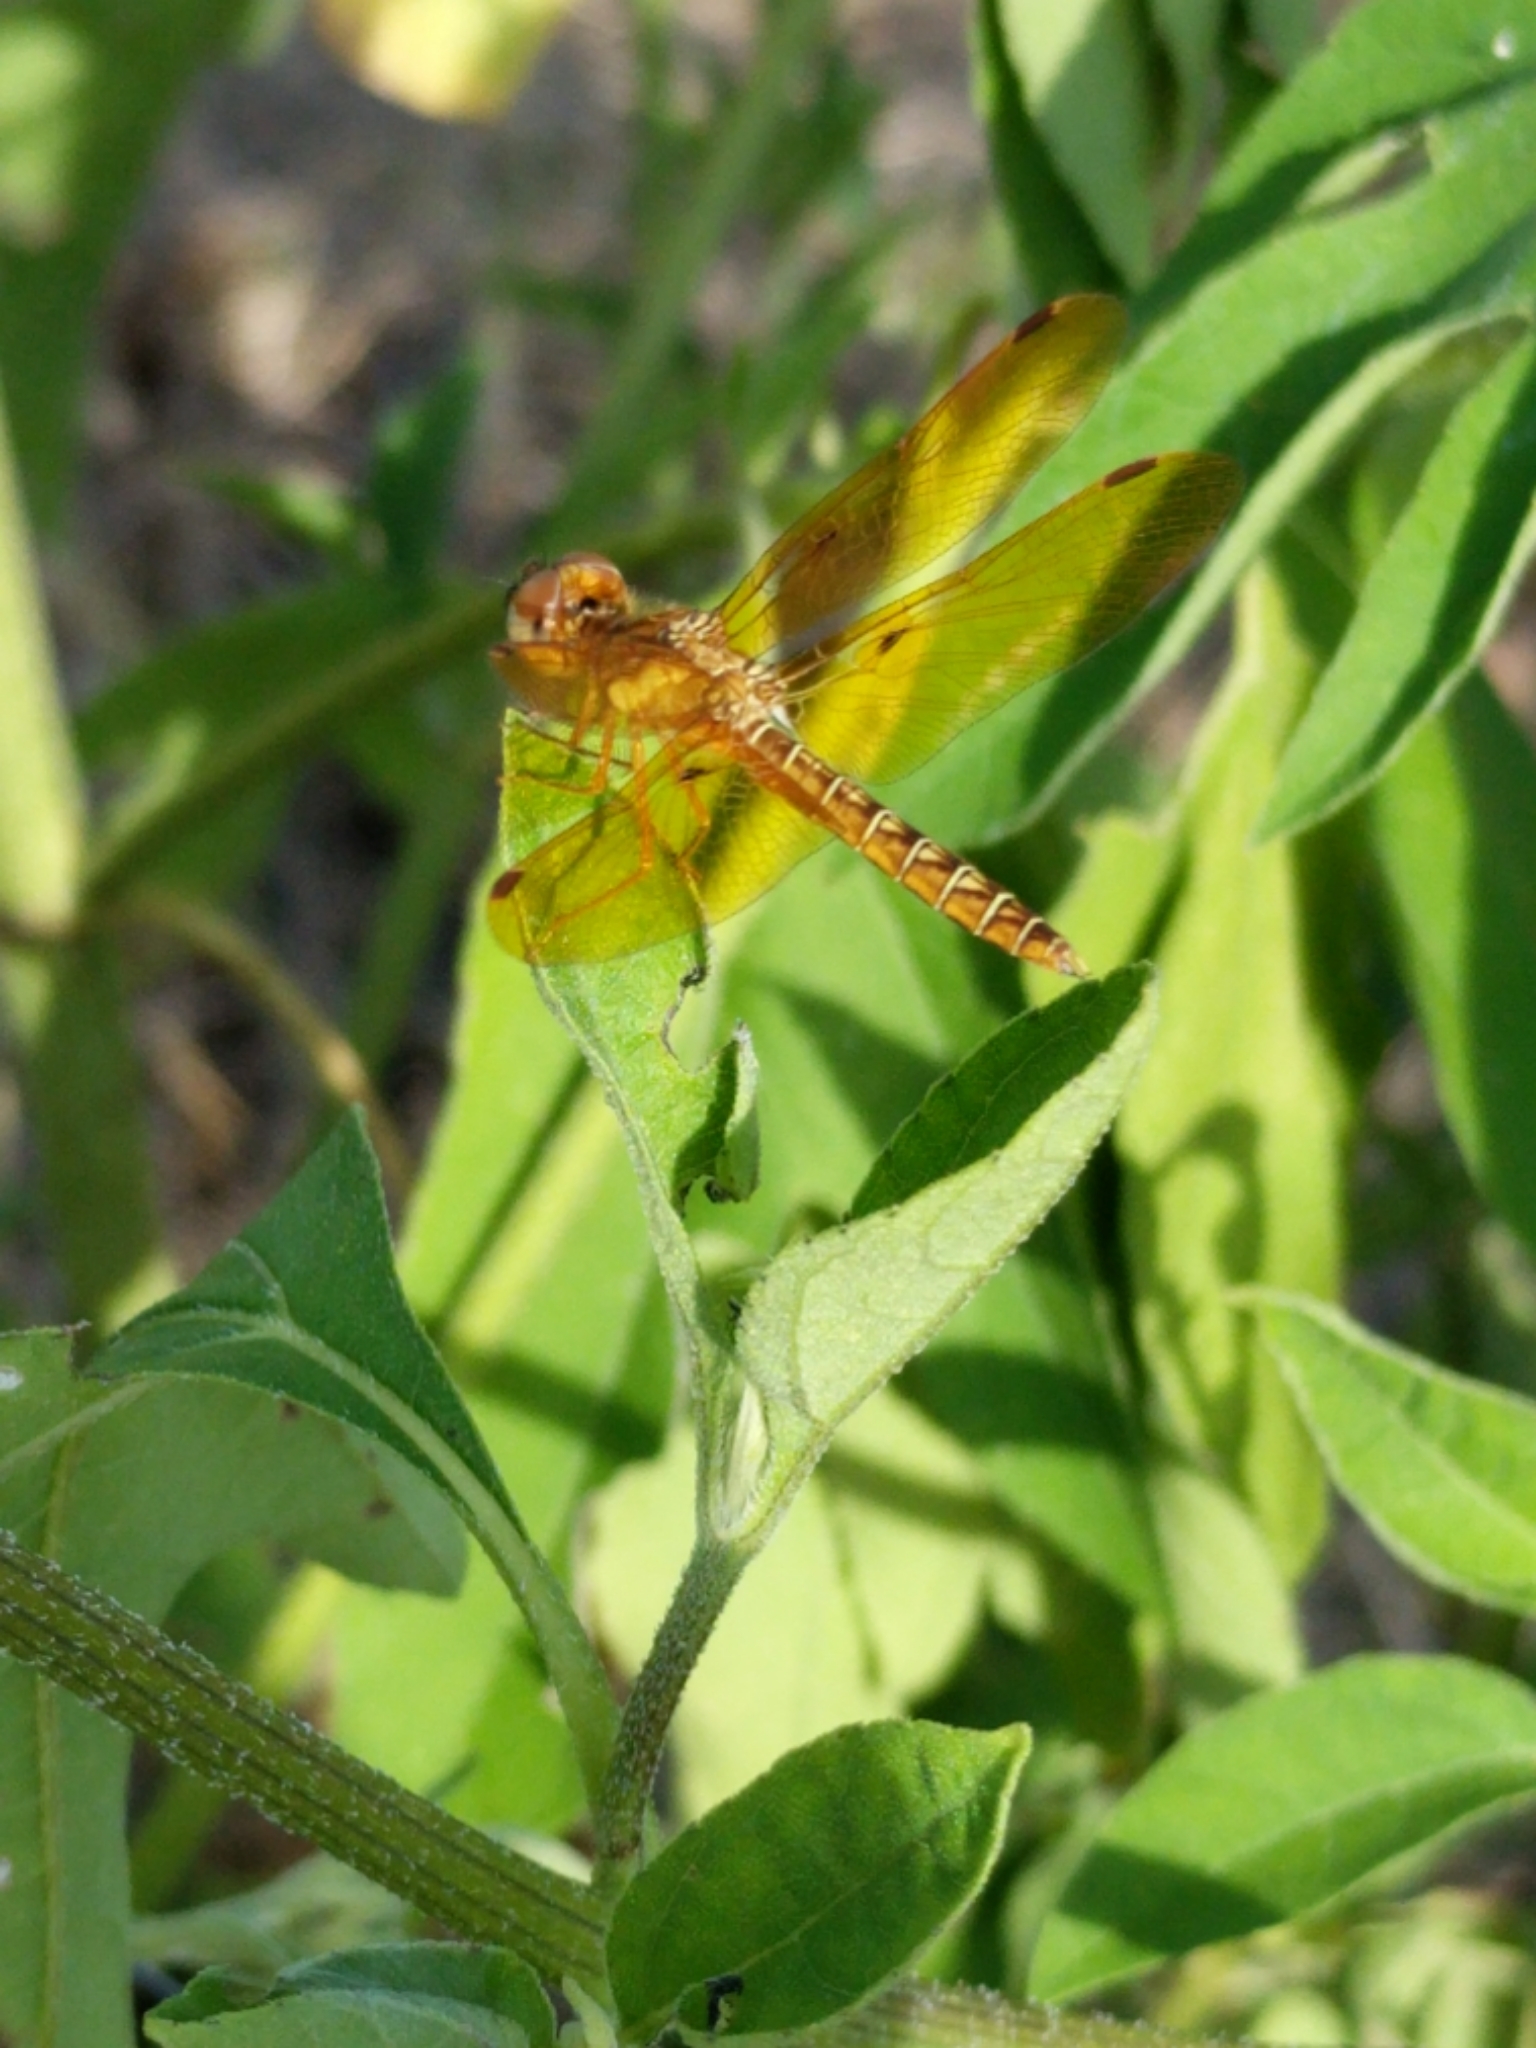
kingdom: Animalia
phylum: Arthropoda
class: Insecta
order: Odonata
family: Libellulidae
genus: Perithemis
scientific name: Perithemis tenera
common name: Eastern amberwing
